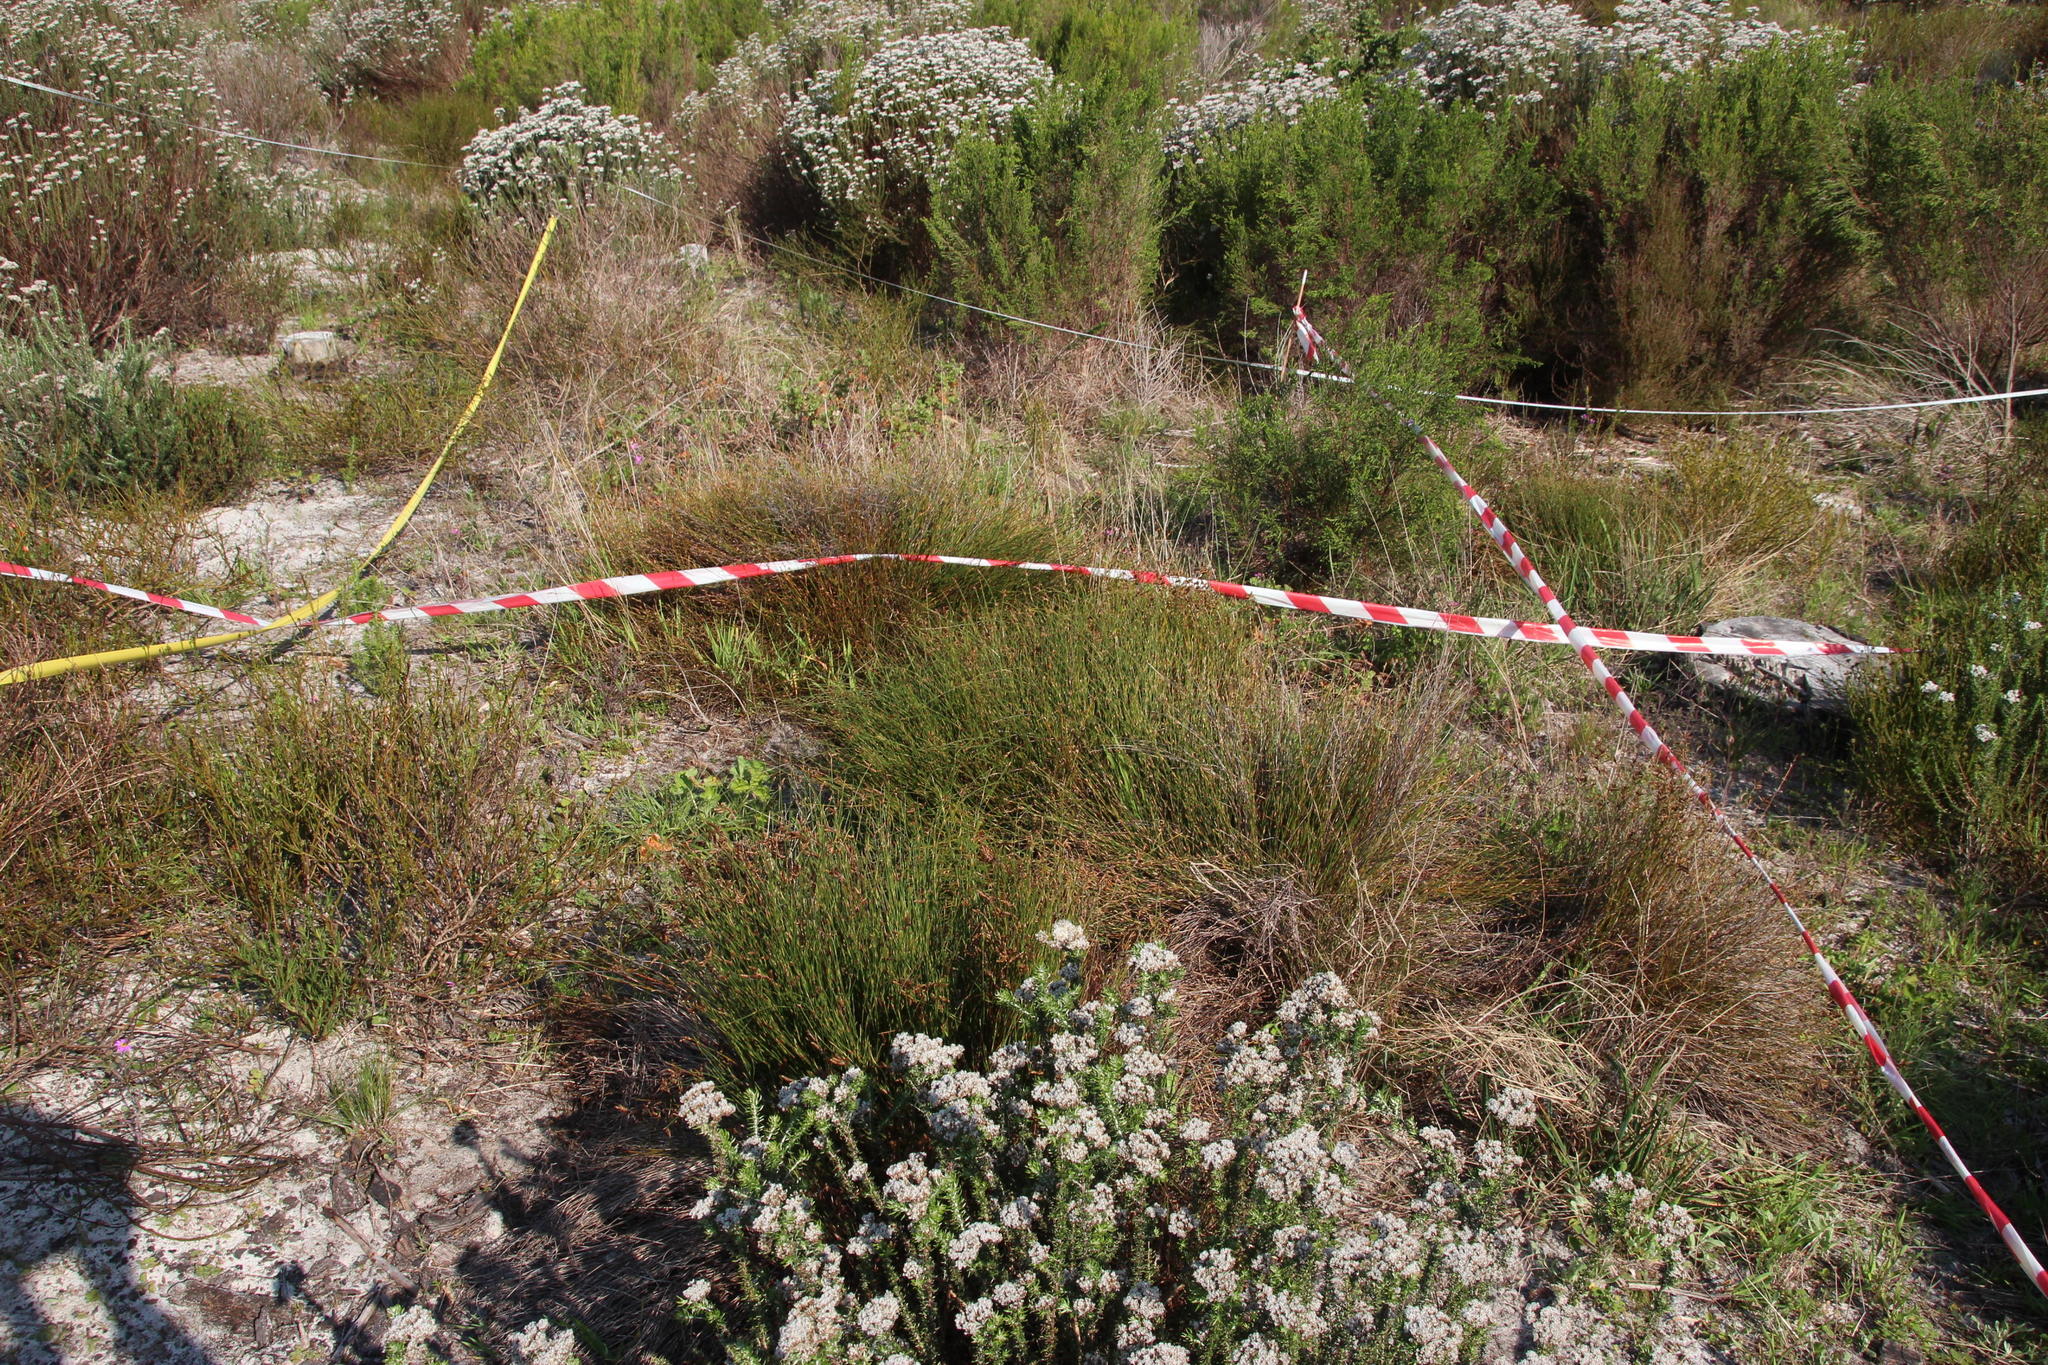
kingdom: Plantae
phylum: Tracheophyta
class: Liliopsida
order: Poales
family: Restionaceae
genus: Mastersiella
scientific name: Mastersiella digitata
